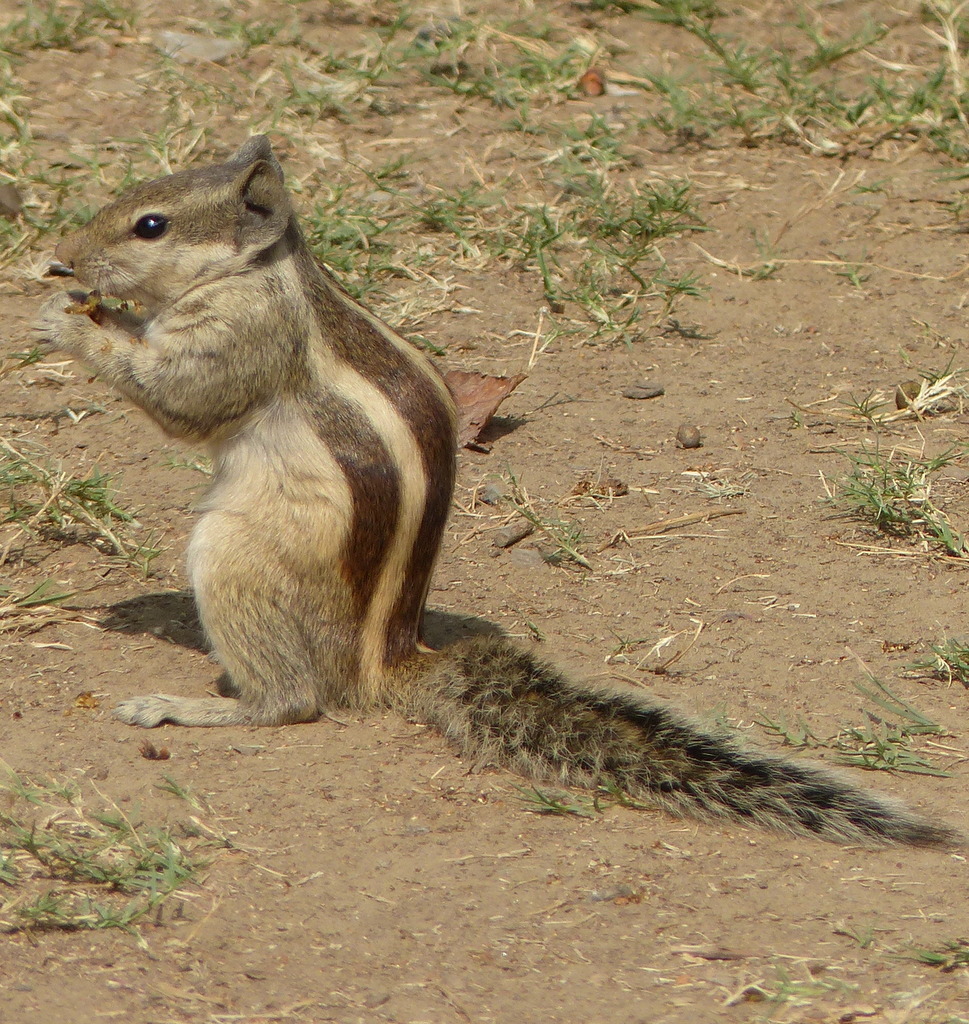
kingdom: Animalia
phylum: Chordata
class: Mammalia
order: Rodentia
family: Sciuridae
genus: Funambulus
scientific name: Funambulus pennantii
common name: Northern palm squirrel
